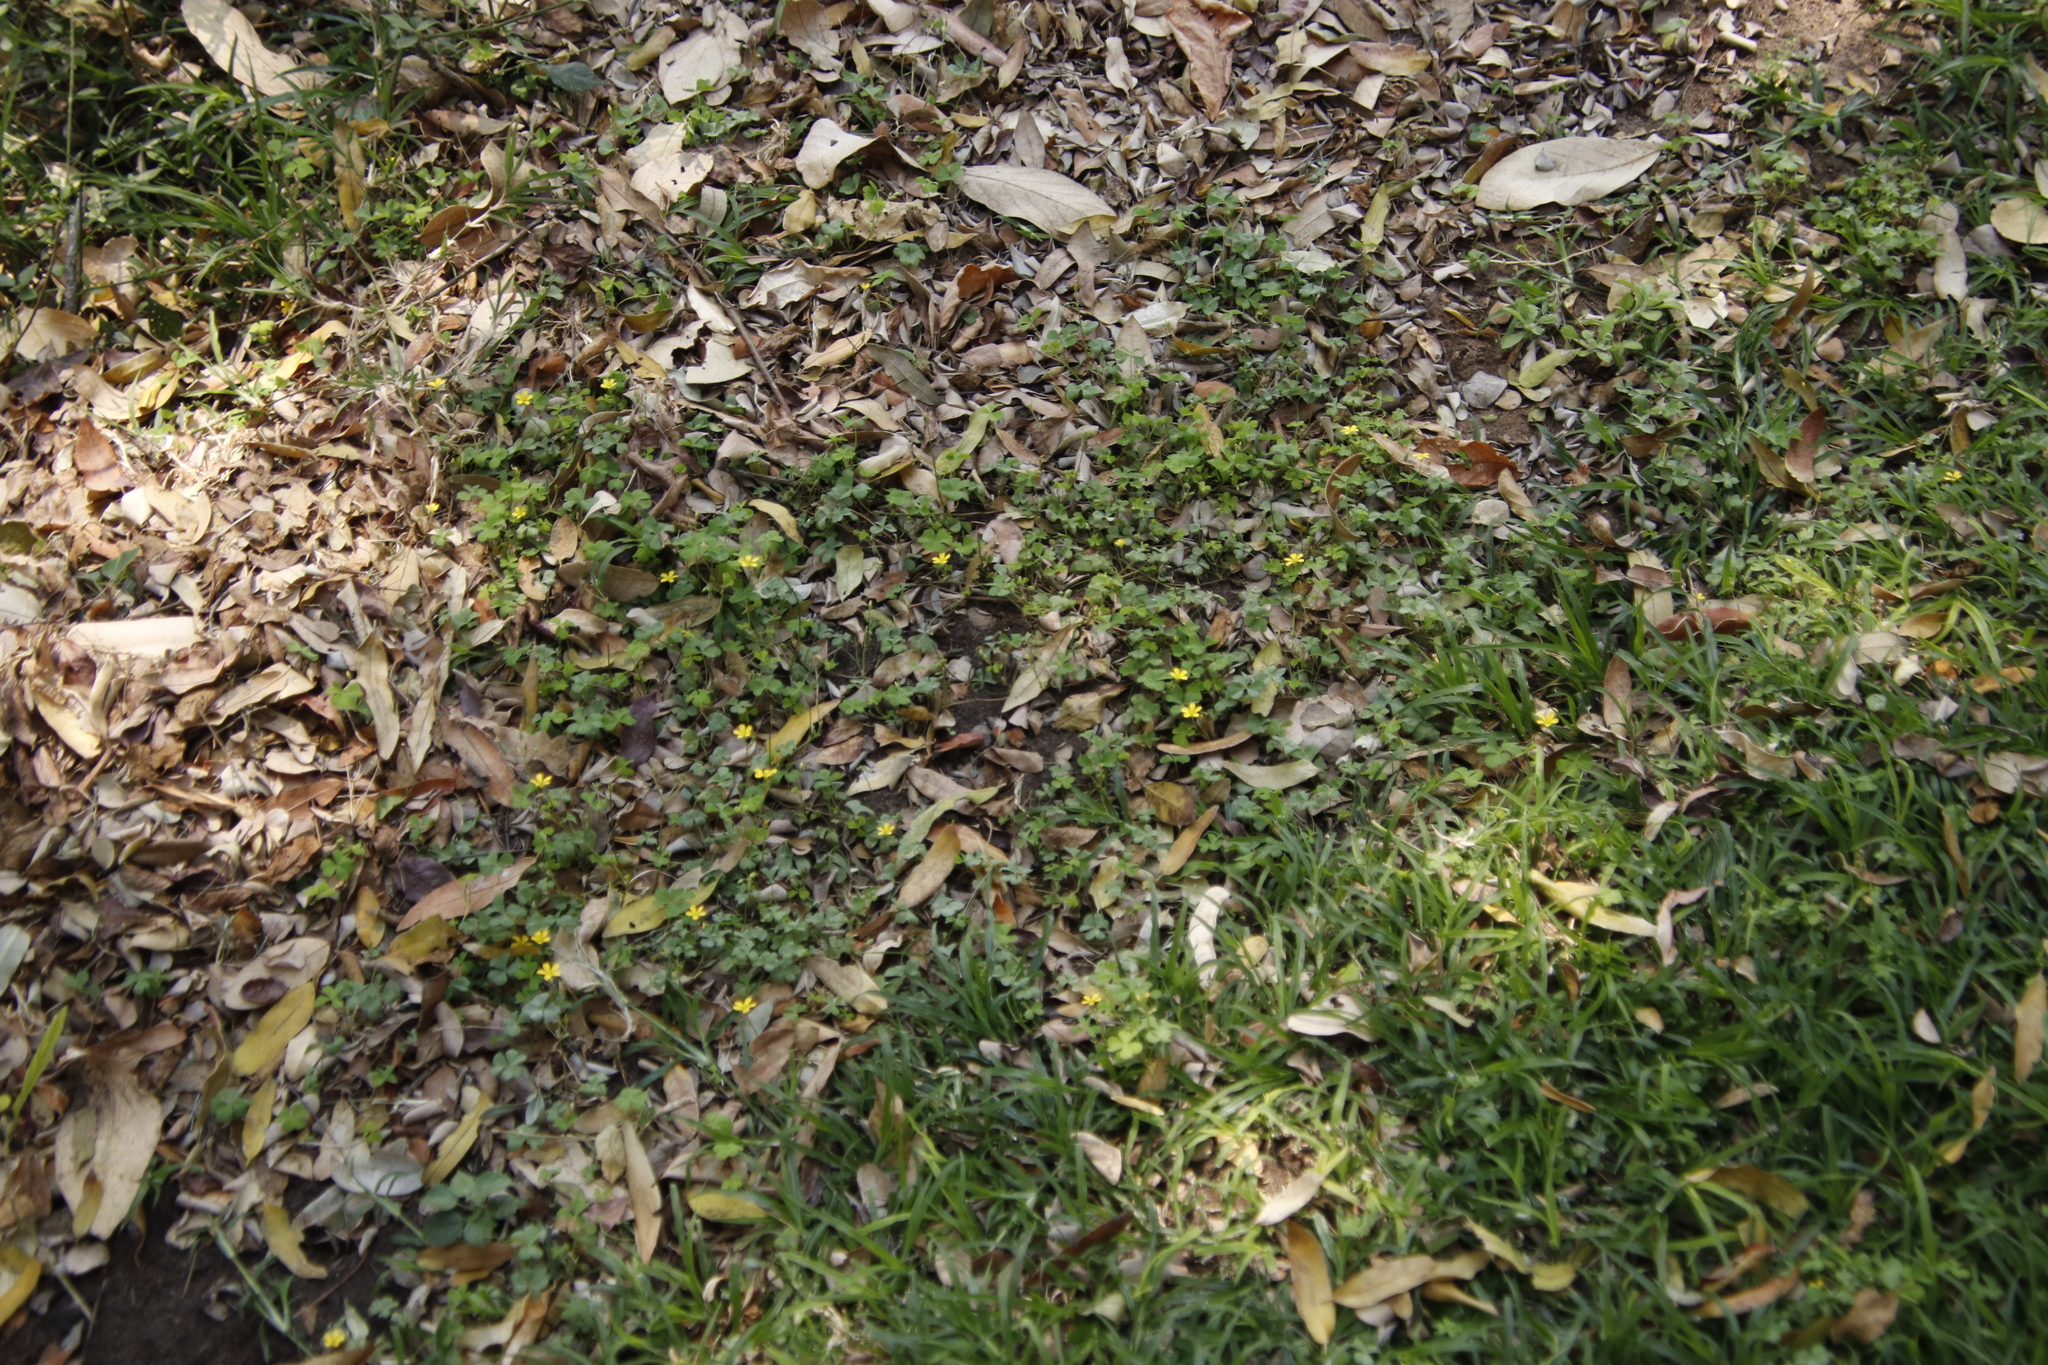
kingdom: Plantae
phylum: Tracheophyta
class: Magnoliopsida
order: Oxalidales
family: Oxalidaceae
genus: Oxalis
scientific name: Oxalis corniculata
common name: Procumbent yellow-sorrel
